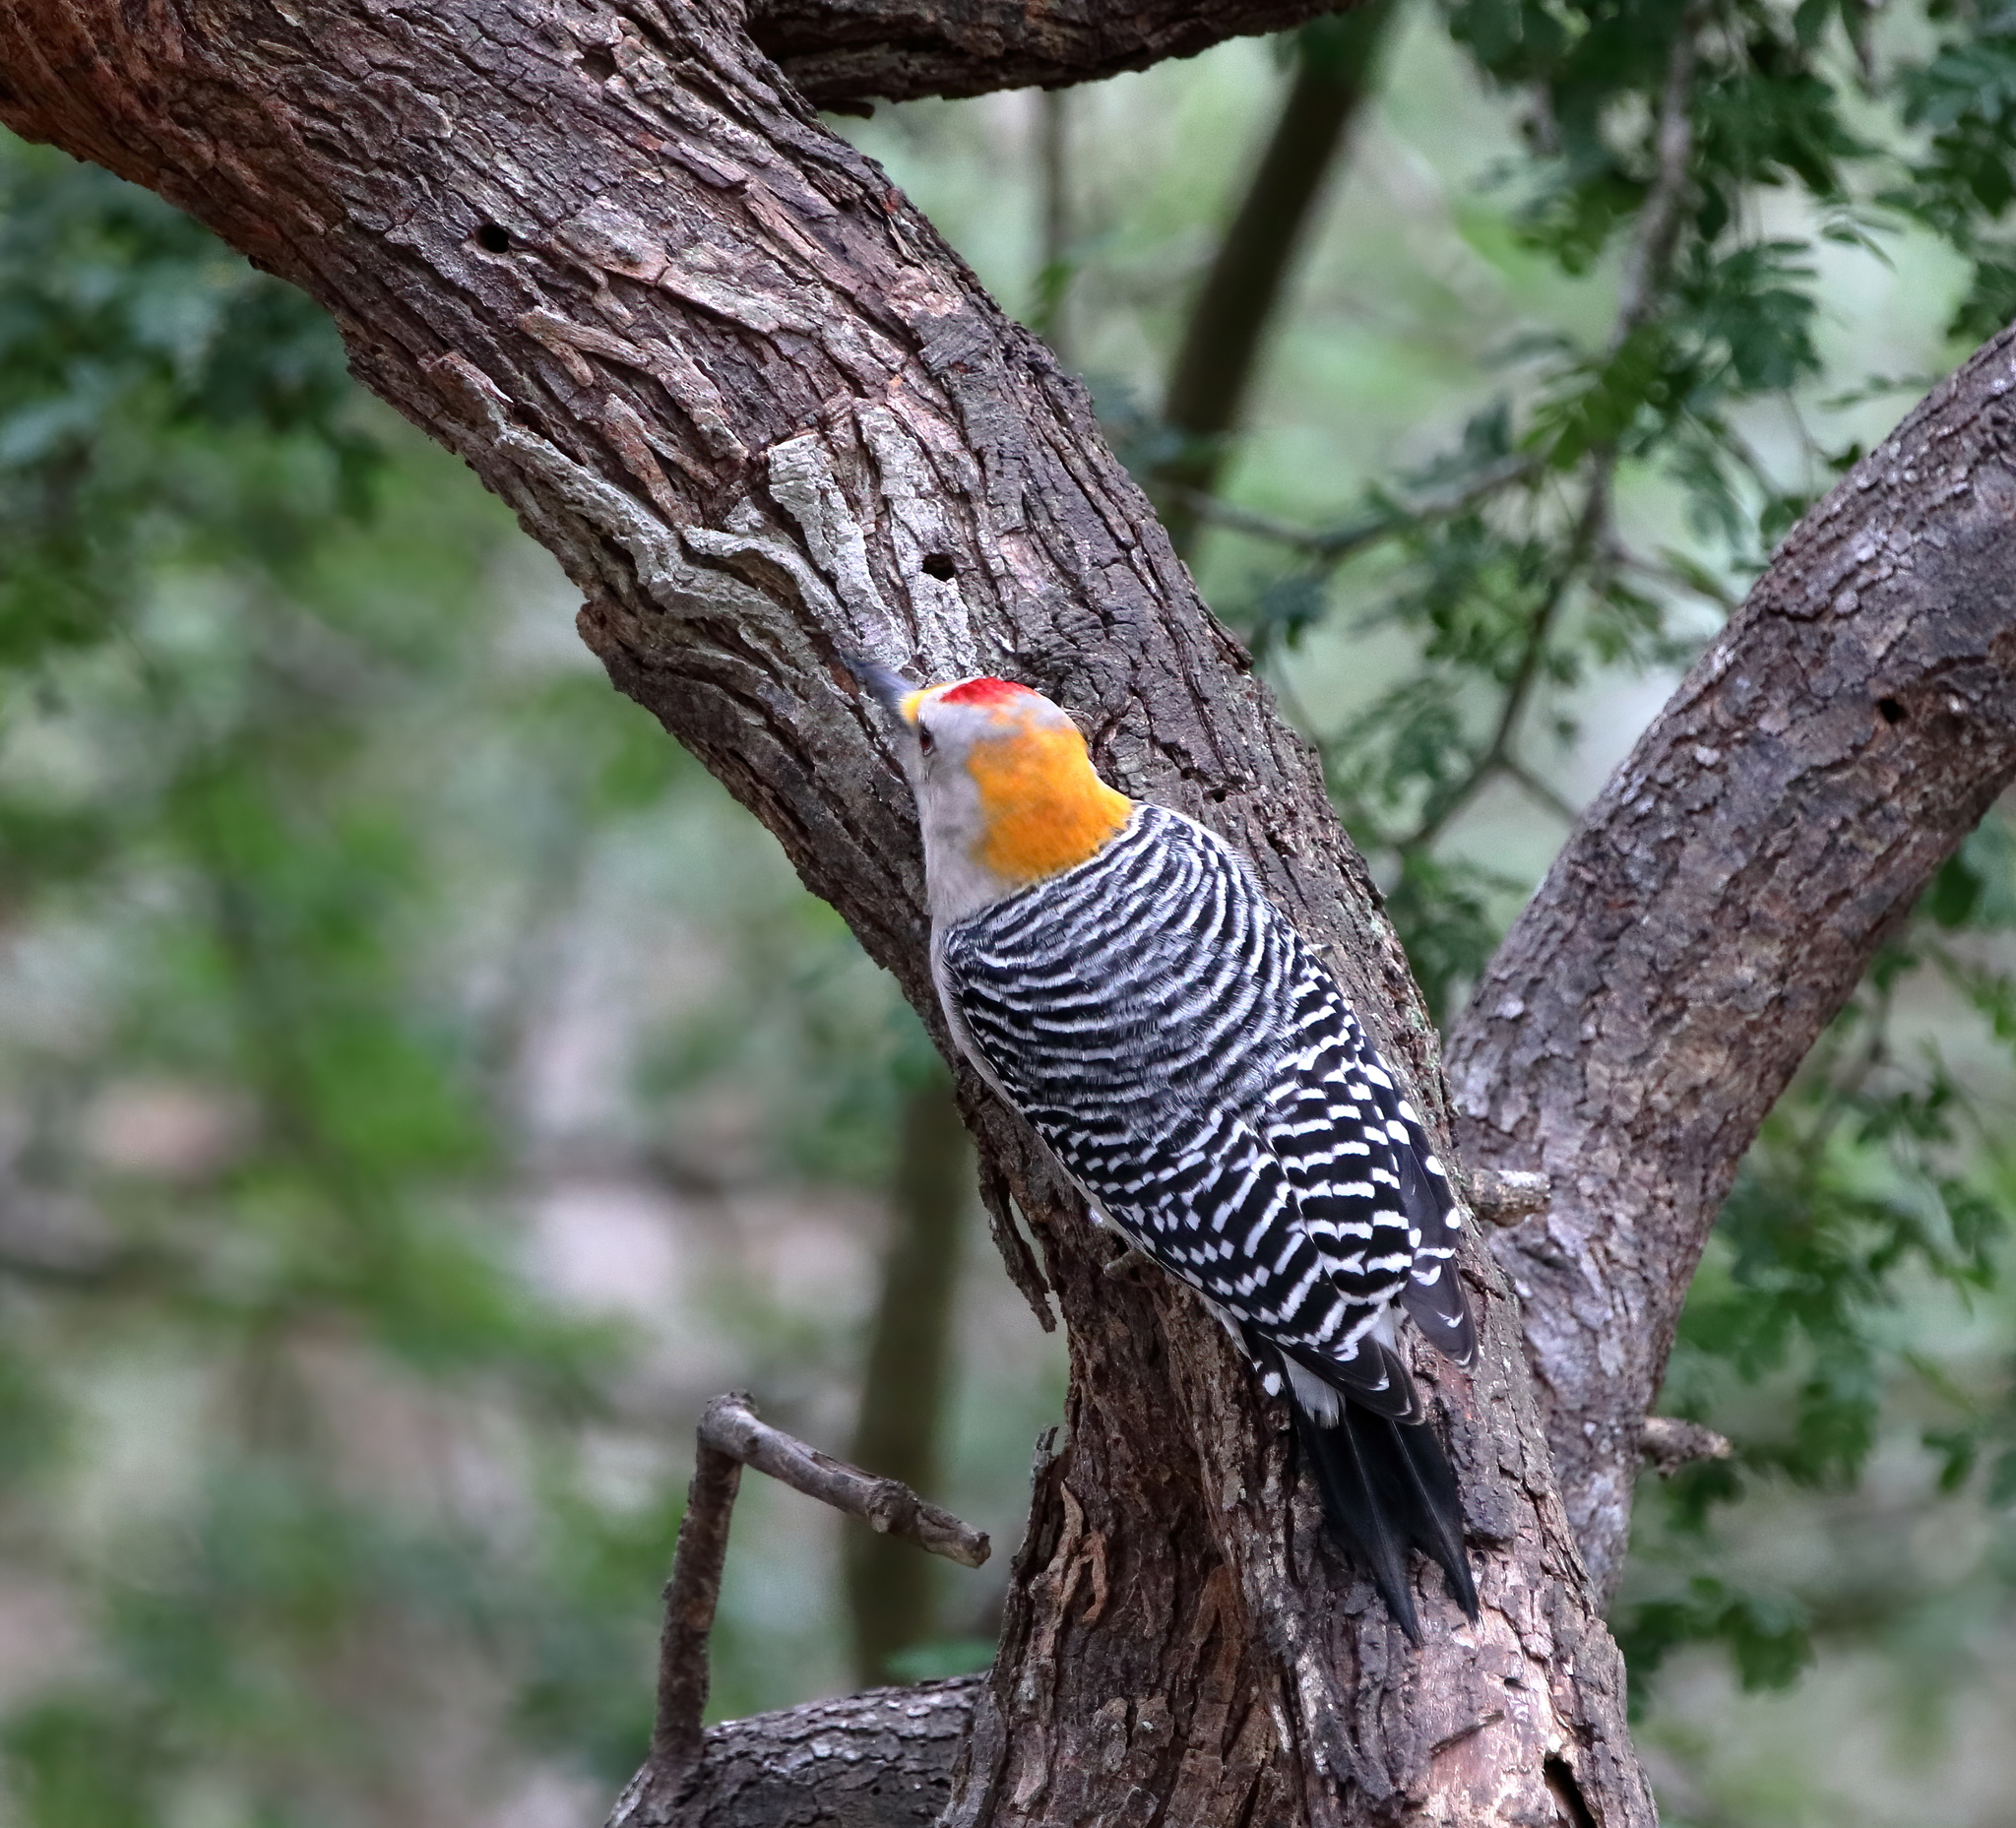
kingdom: Animalia
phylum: Chordata
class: Aves
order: Piciformes
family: Picidae
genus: Melanerpes
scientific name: Melanerpes aurifrons
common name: Golden-fronted woodpecker
